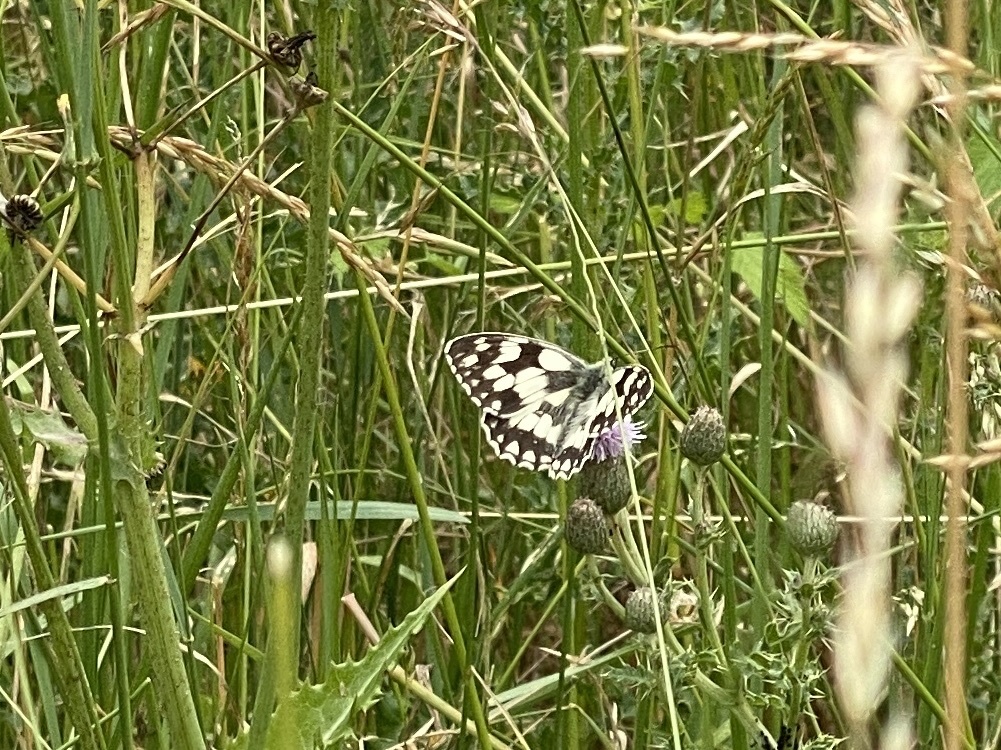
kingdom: Animalia
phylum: Arthropoda
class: Insecta
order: Lepidoptera
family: Nymphalidae
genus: Melanargia
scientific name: Melanargia galathea
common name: Marbled white
